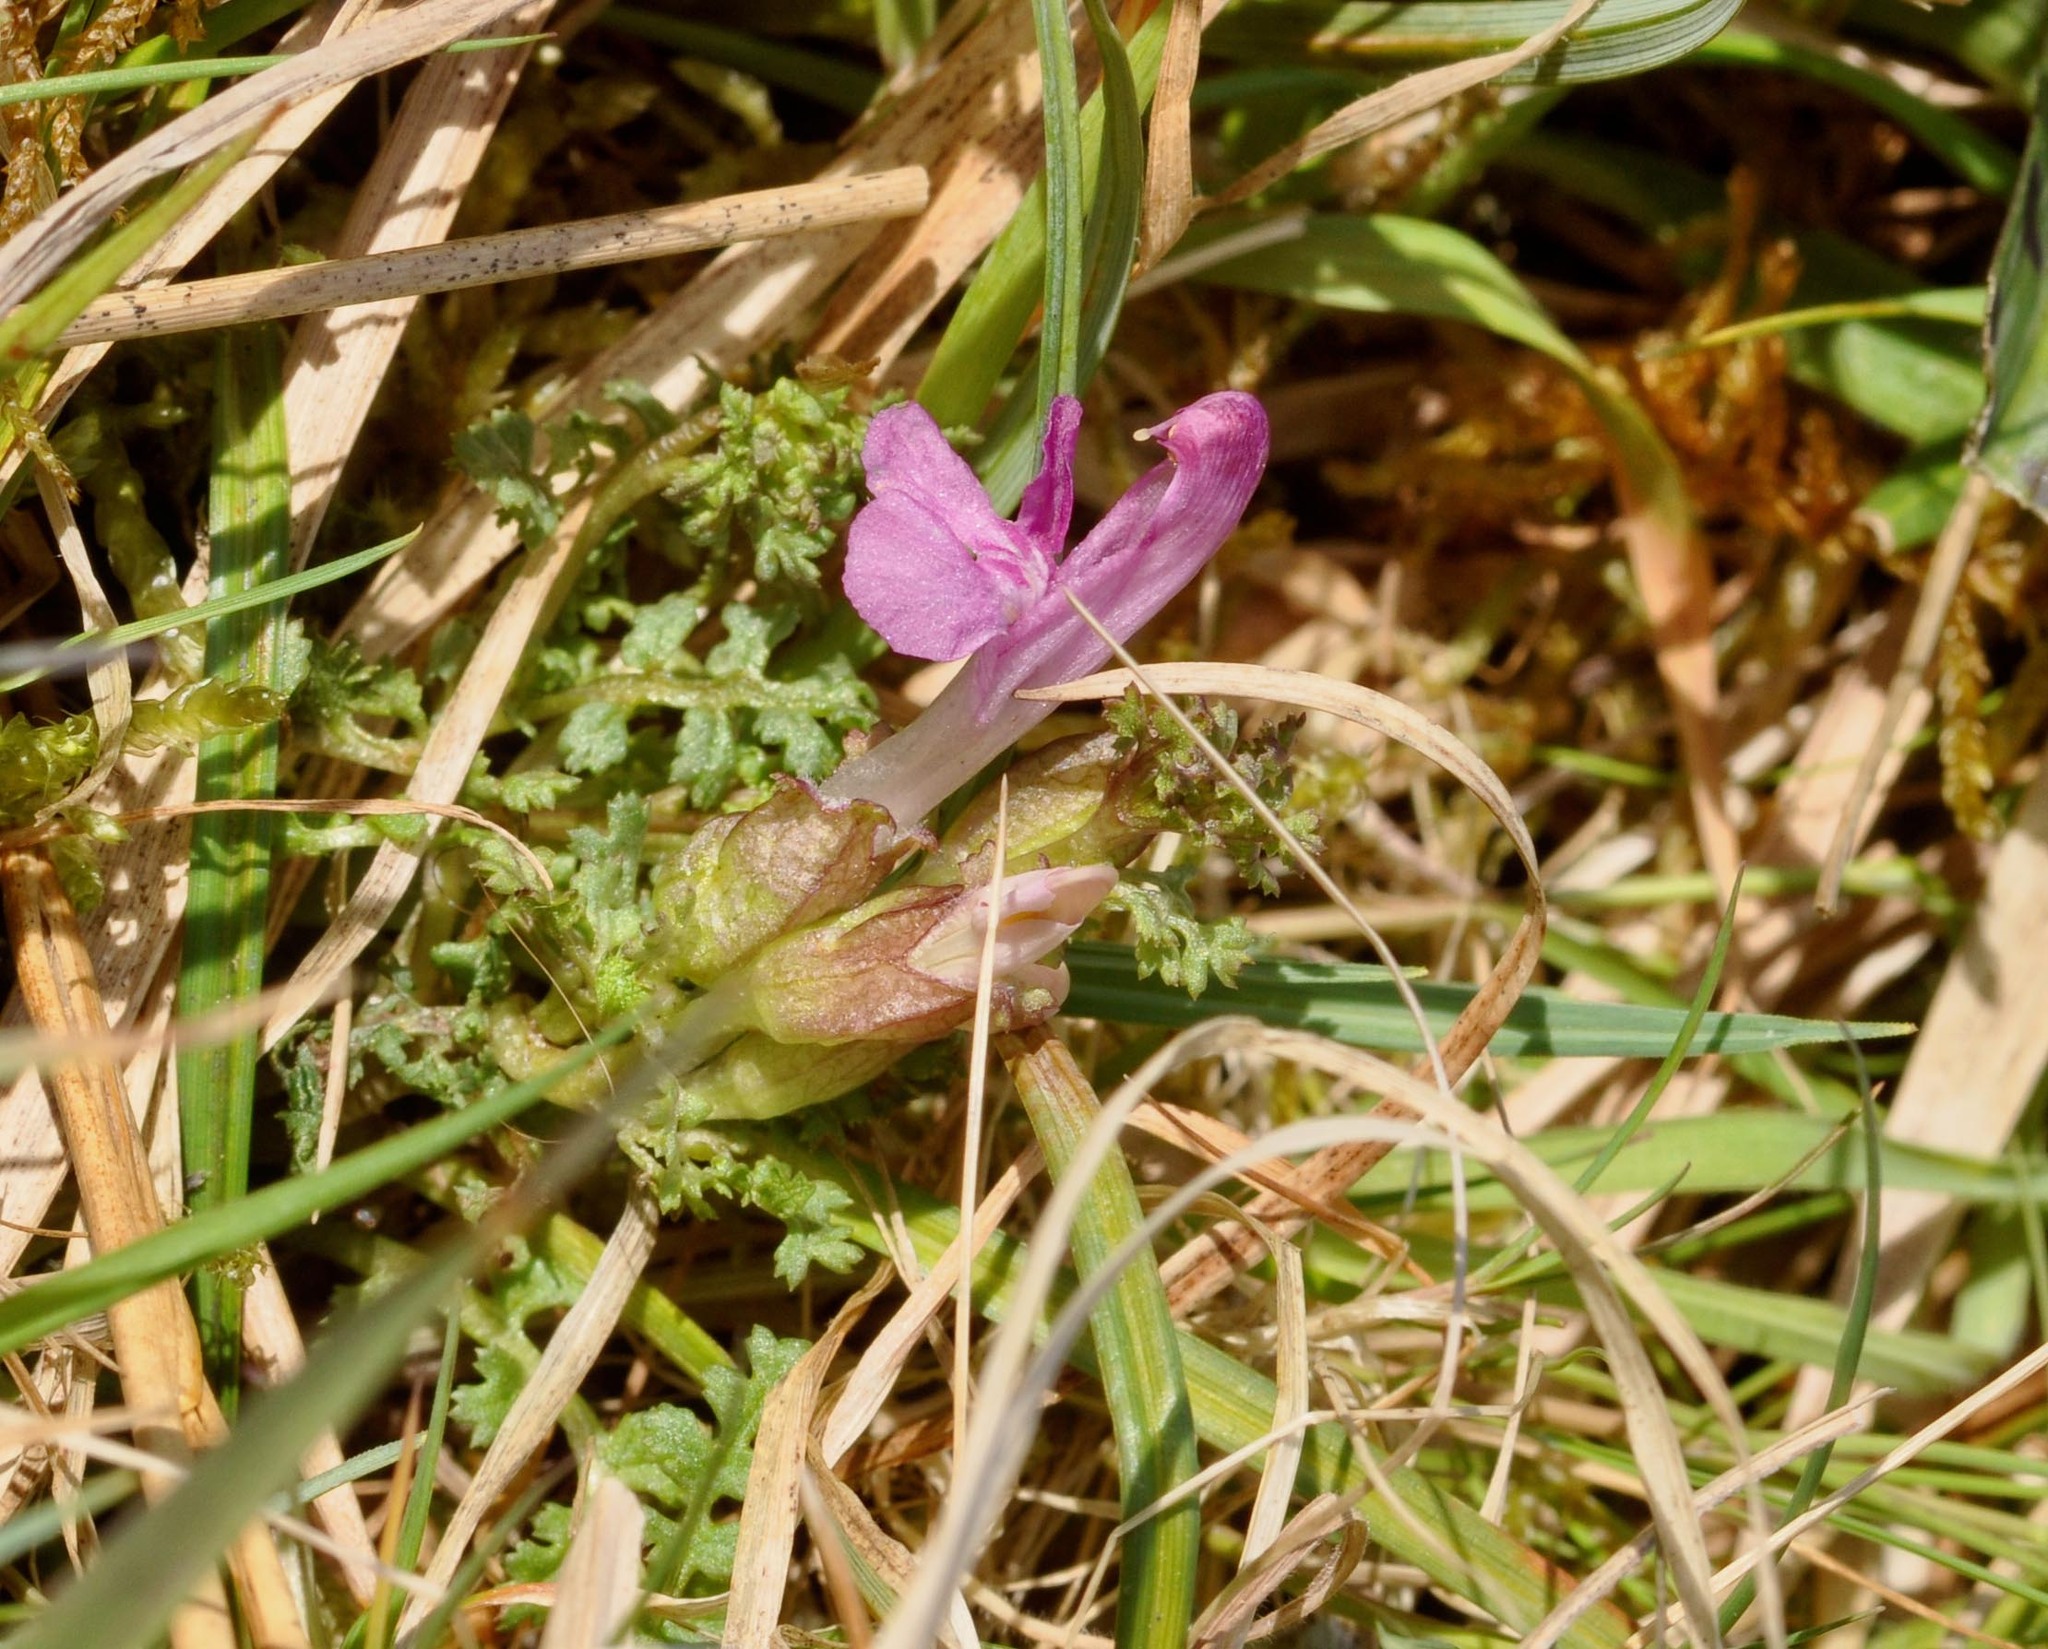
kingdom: Plantae
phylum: Tracheophyta
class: Magnoliopsida
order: Lamiales
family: Orobanchaceae
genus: Pedicularis
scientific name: Pedicularis sylvatica
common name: Lousewort
